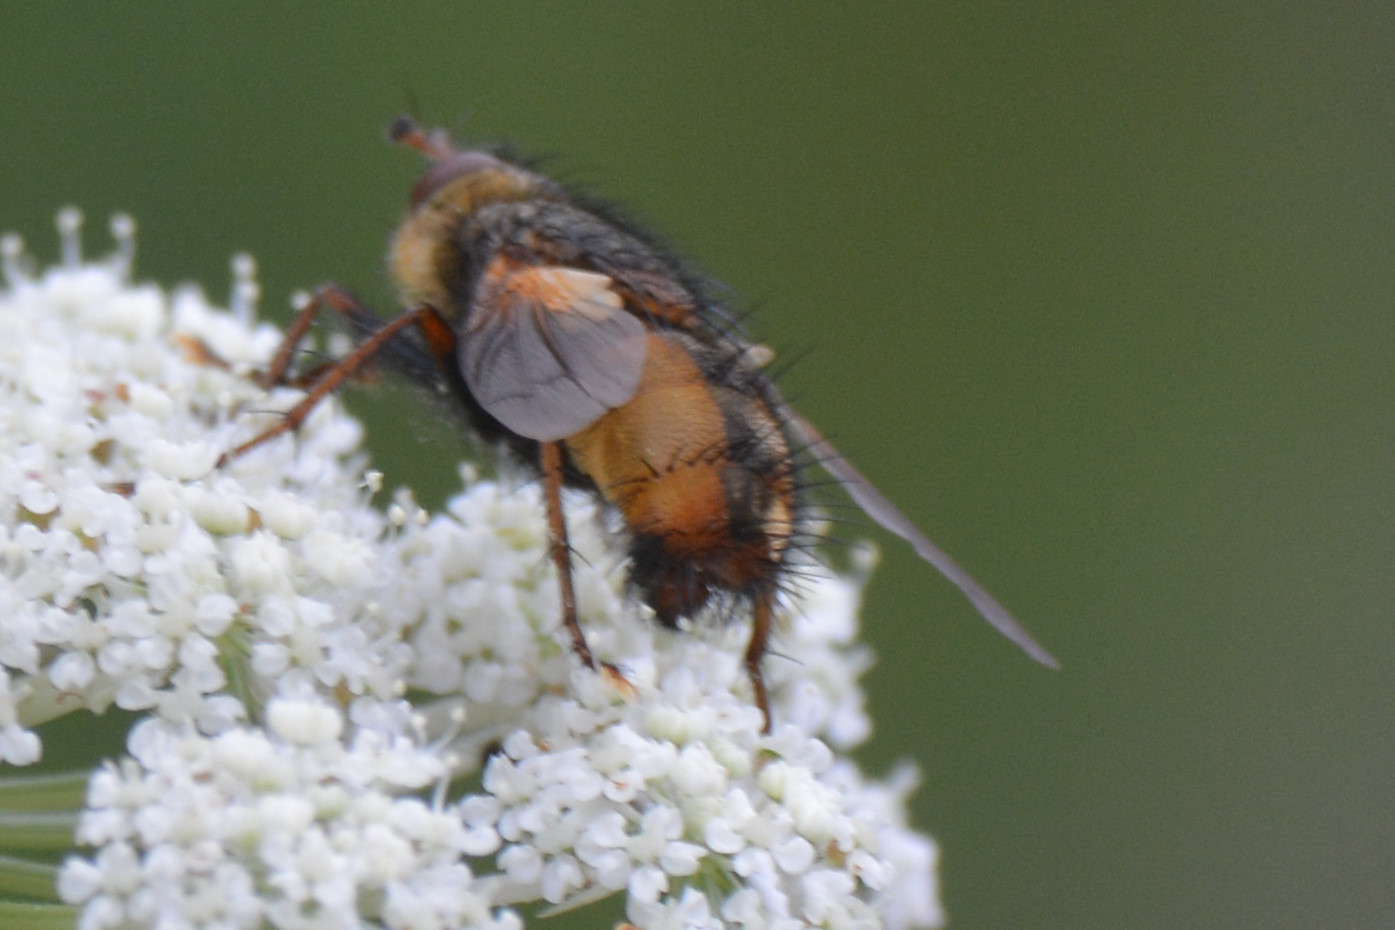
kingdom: Animalia
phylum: Arthropoda
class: Insecta
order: Diptera
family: Tachinidae
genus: Tachina
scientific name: Tachina fera
